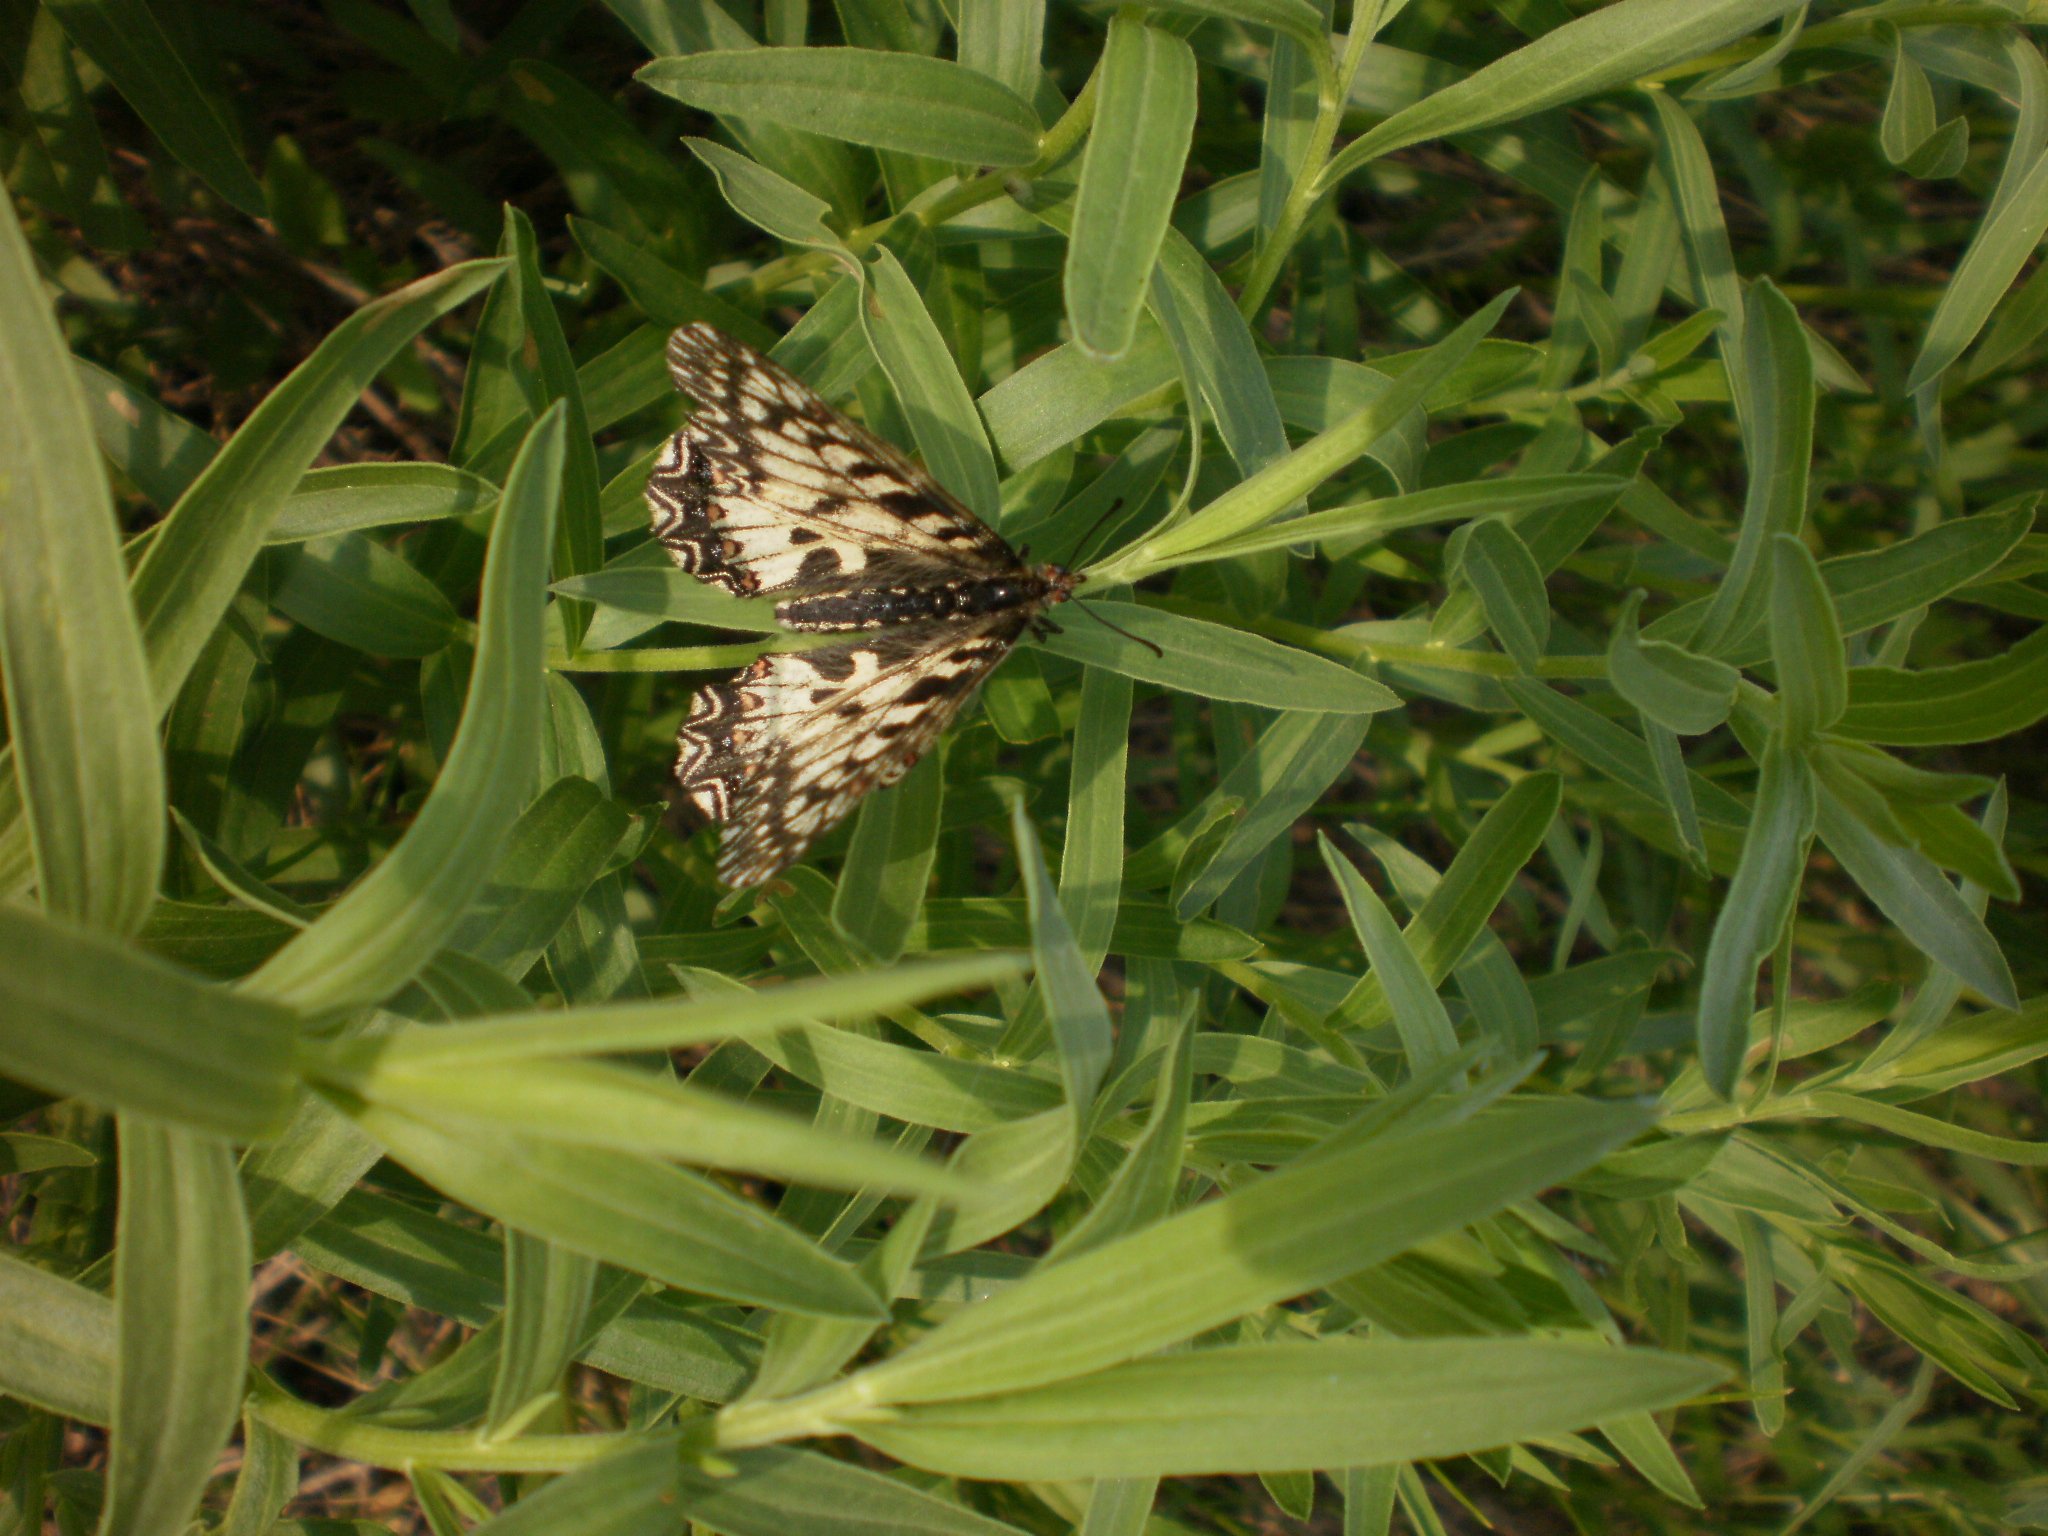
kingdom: Animalia
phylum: Arthropoda
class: Insecta
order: Lepidoptera
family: Papilionidae
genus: Zerynthia
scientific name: Zerynthia polyxena
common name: Southern festoon
